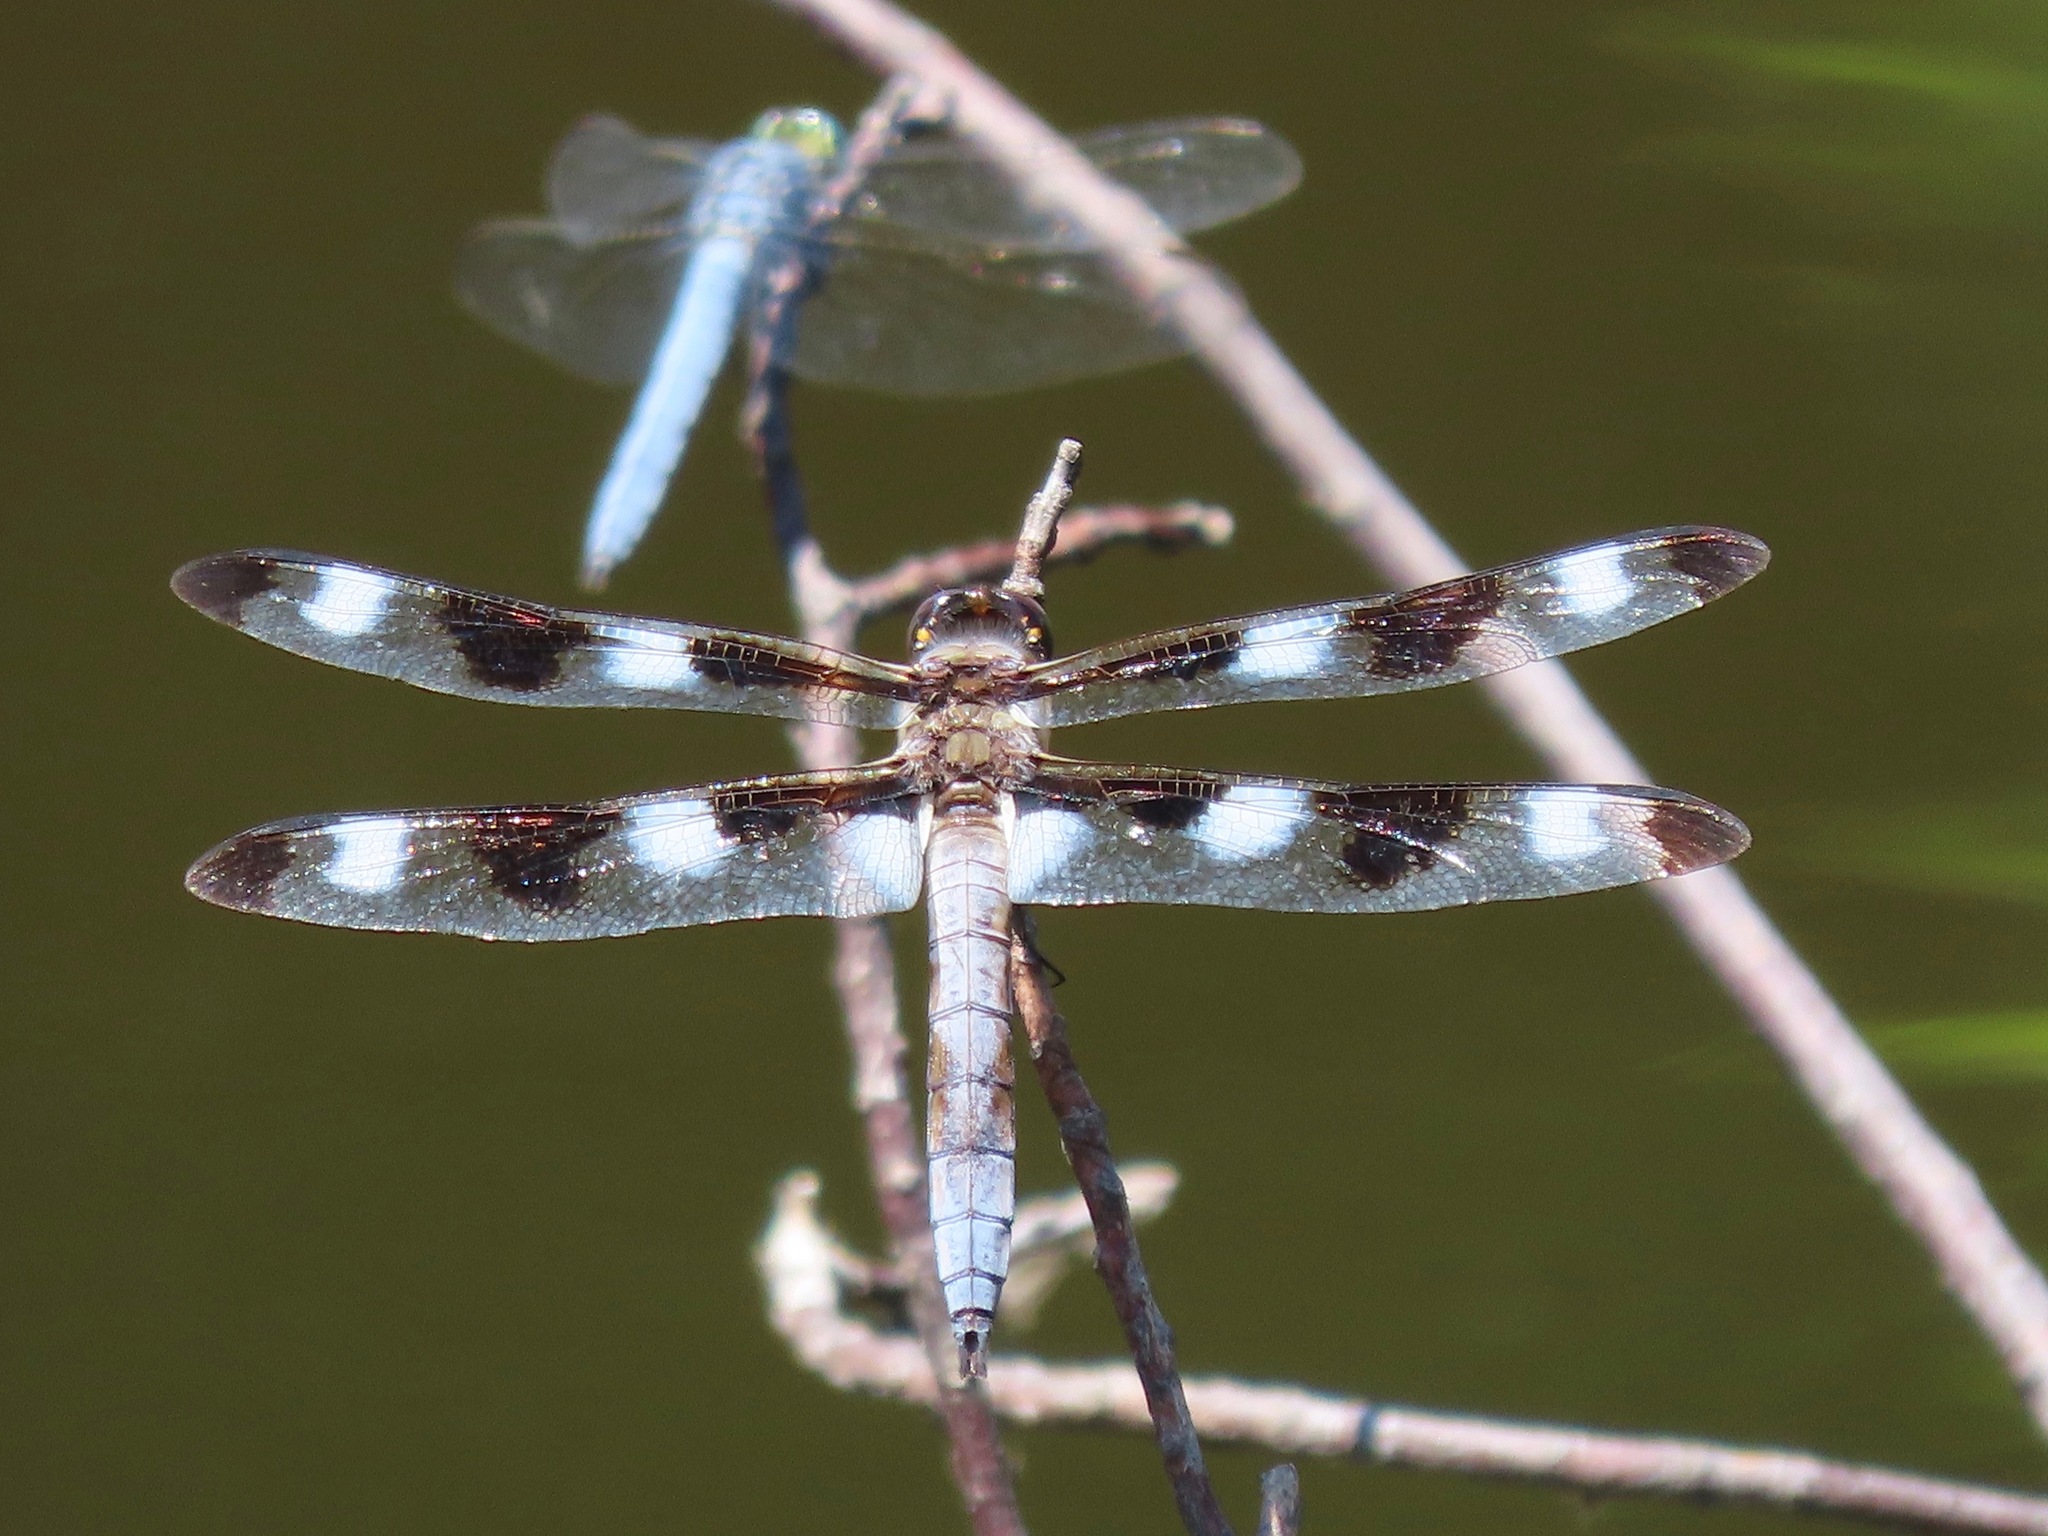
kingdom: Animalia
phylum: Arthropoda
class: Insecta
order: Odonata
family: Libellulidae
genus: Libellula
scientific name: Libellula pulchella
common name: Twelve-spotted skimmer
